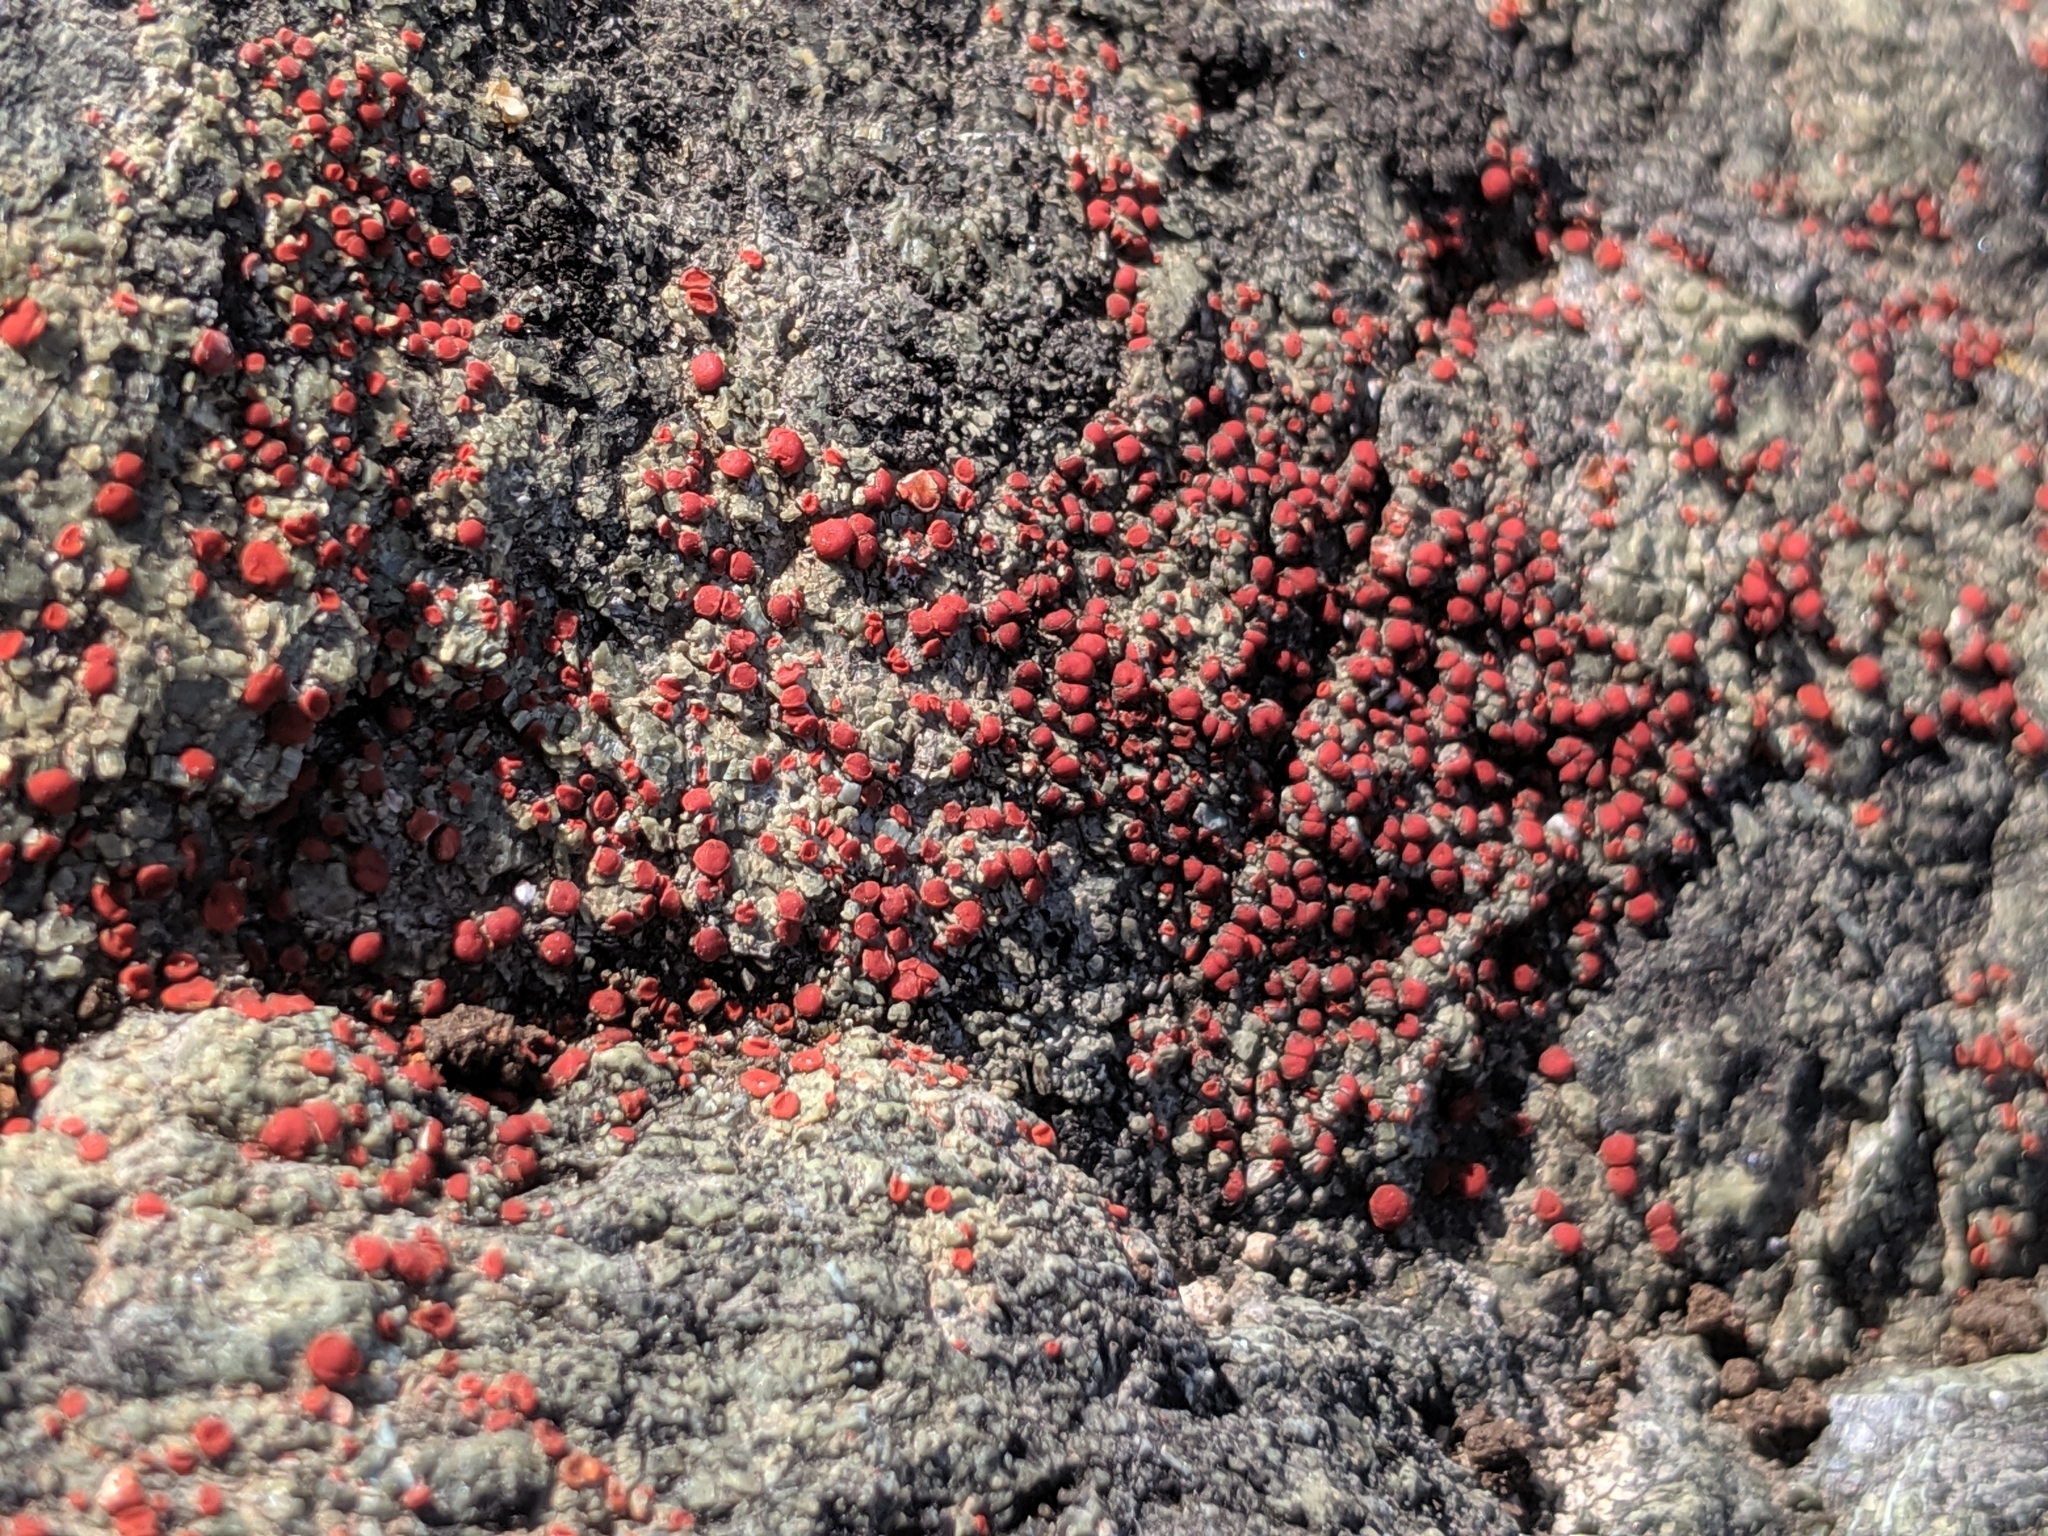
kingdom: Fungi
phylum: Ascomycota
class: Lecanoromycetes
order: Teloschistales
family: Teloschistaceae
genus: Tomnashia
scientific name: Tomnashia luteominia
